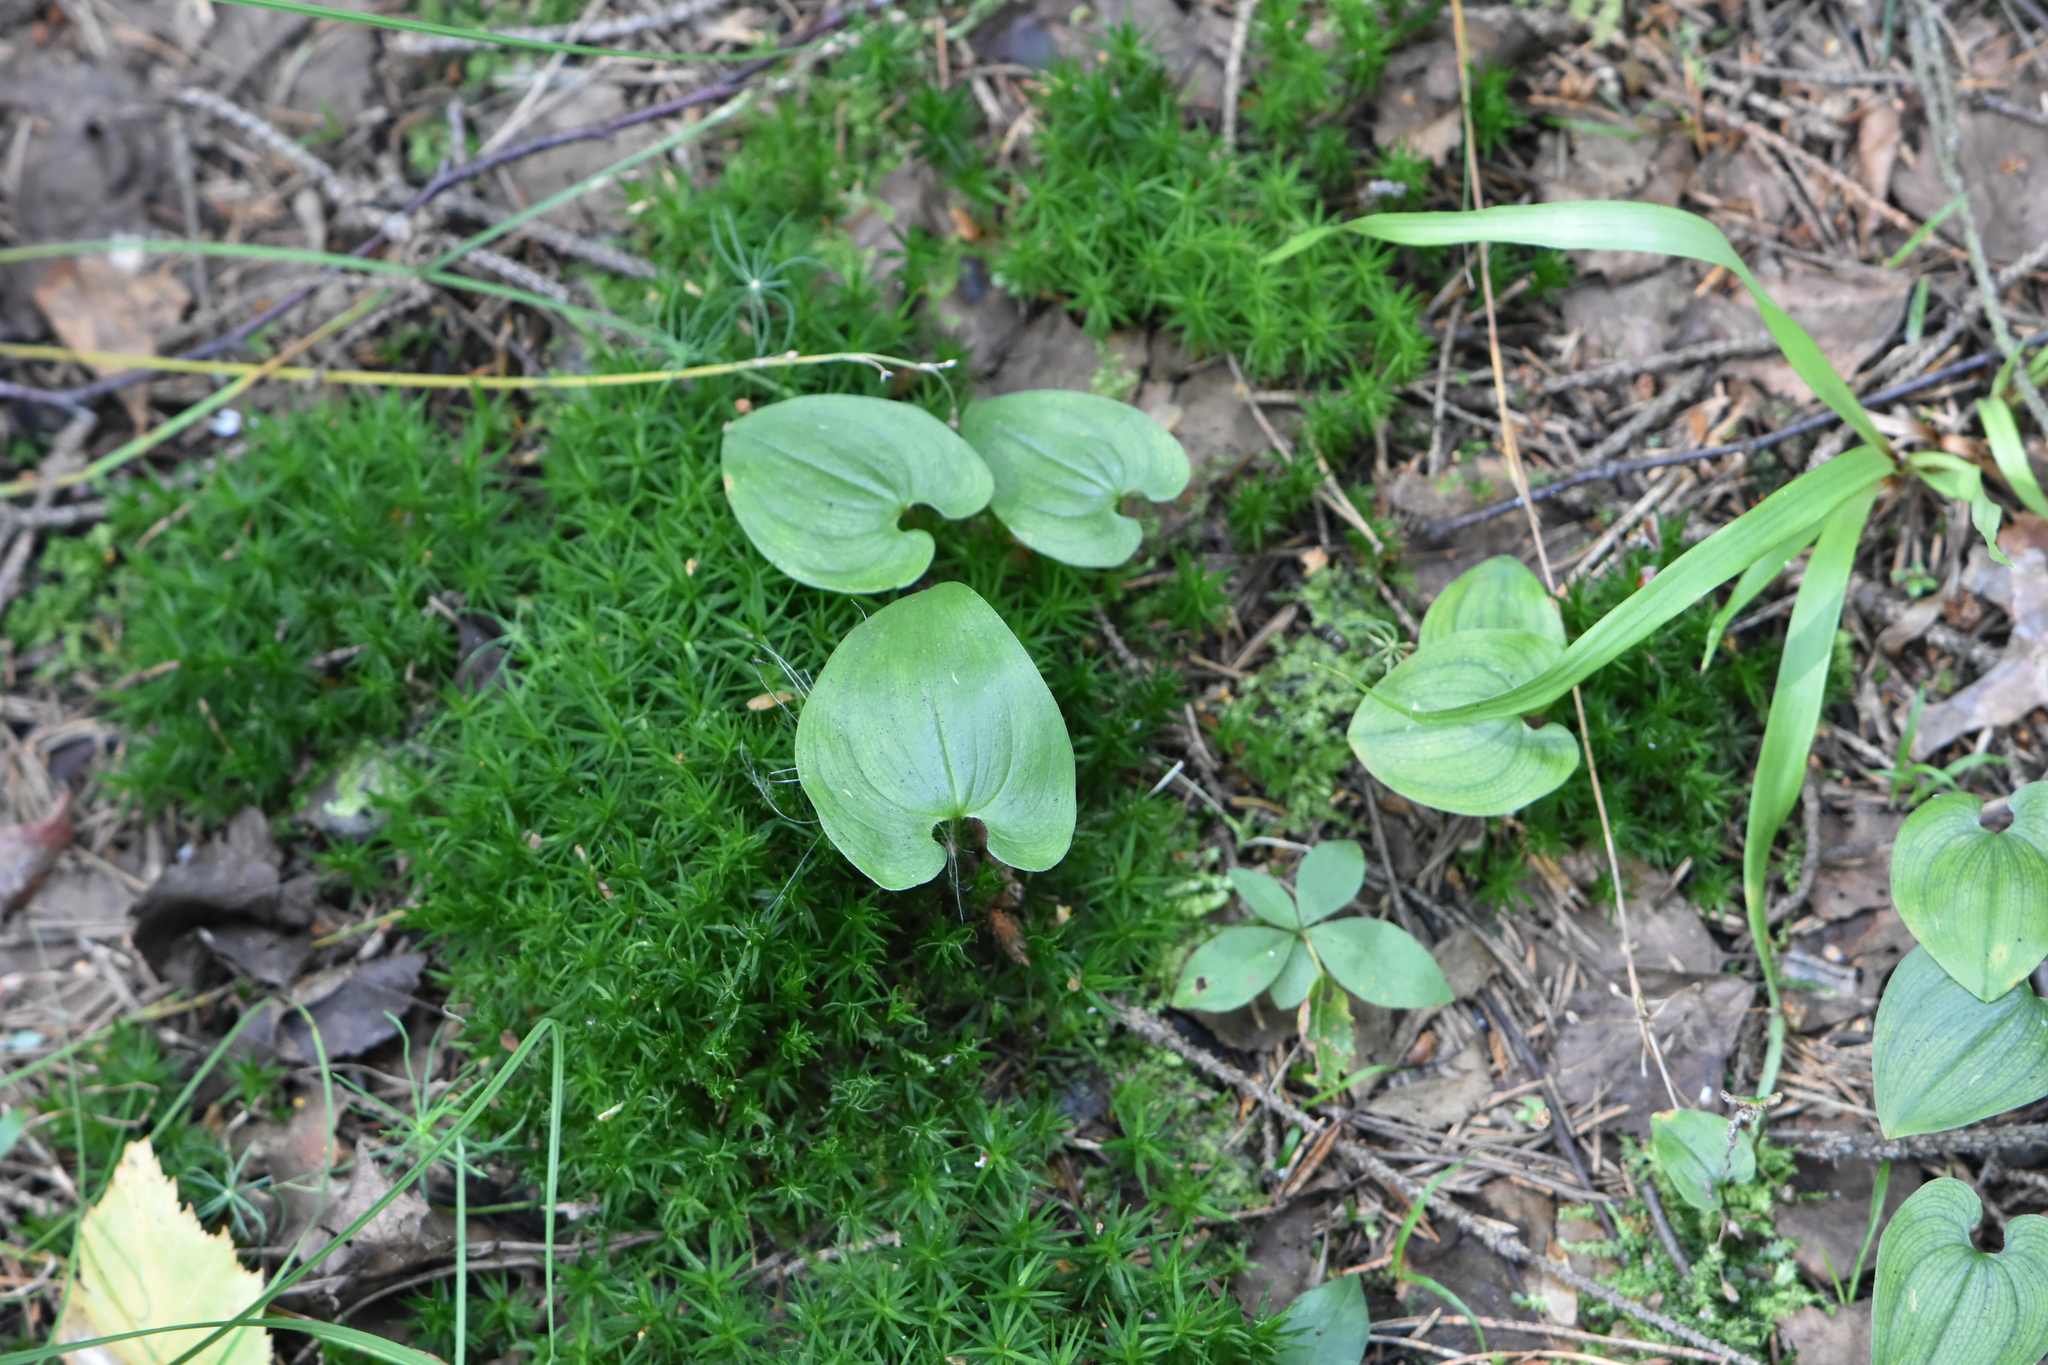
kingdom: Plantae
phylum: Tracheophyta
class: Liliopsida
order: Asparagales
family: Asparagaceae
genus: Maianthemum
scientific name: Maianthemum bifolium
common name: May lily
